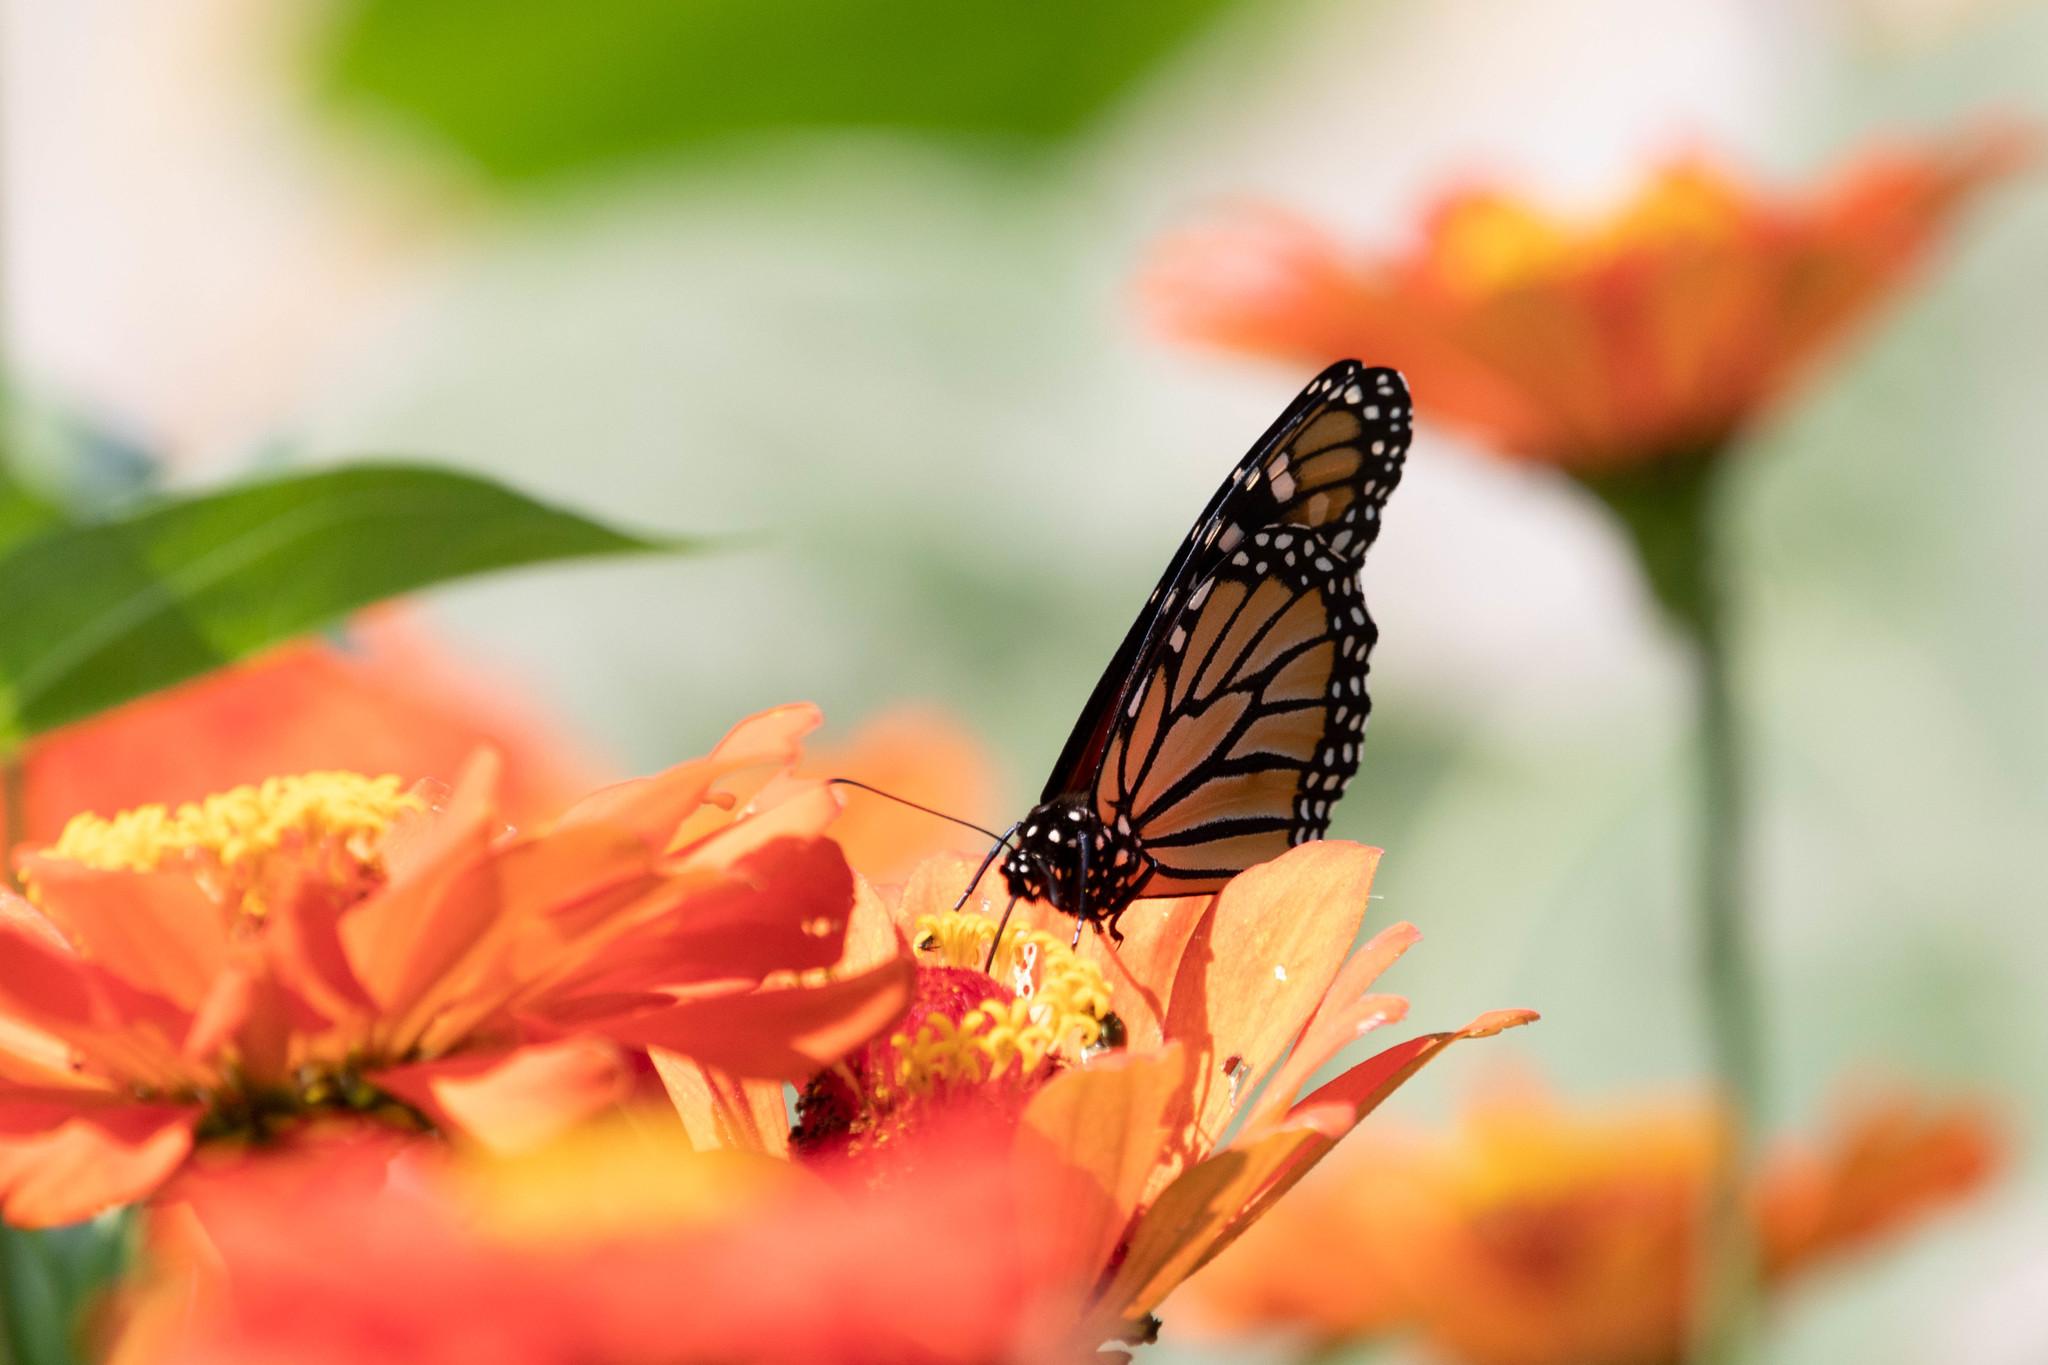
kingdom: Animalia
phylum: Arthropoda
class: Insecta
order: Lepidoptera
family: Nymphalidae
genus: Danaus
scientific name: Danaus plexippus
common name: Monarch
